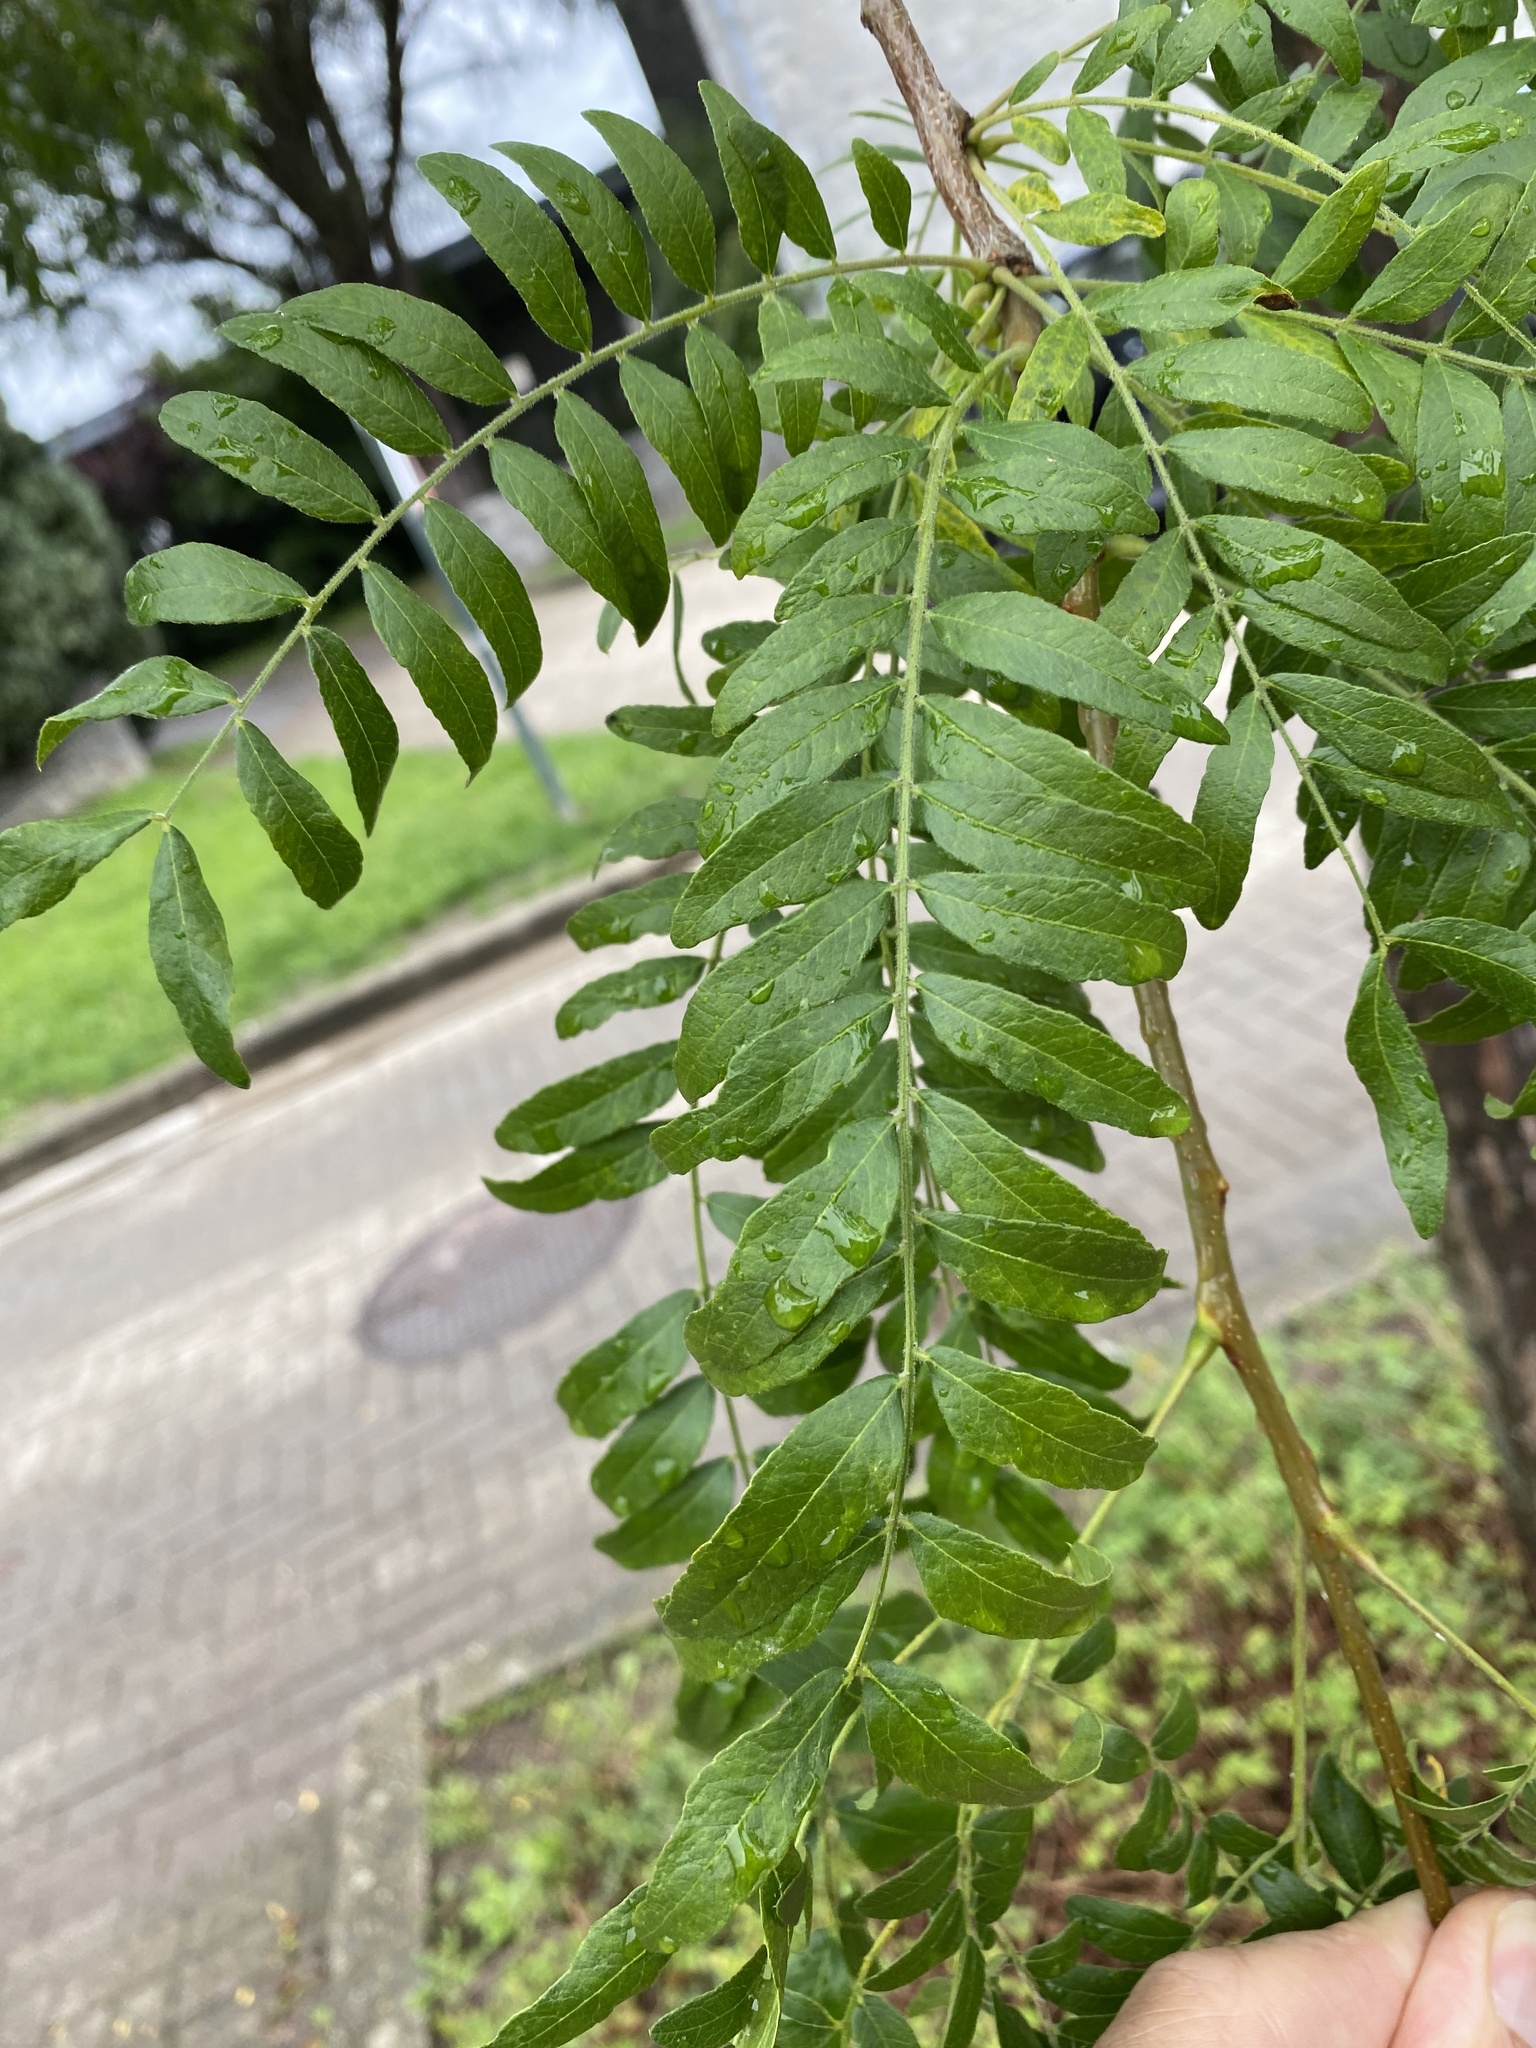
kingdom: Plantae
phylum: Tracheophyta
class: Magnoliopsida
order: Fabales
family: Fabaceae
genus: Gleditsia
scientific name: Gleditsia triacanthos
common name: Common honeylocust
